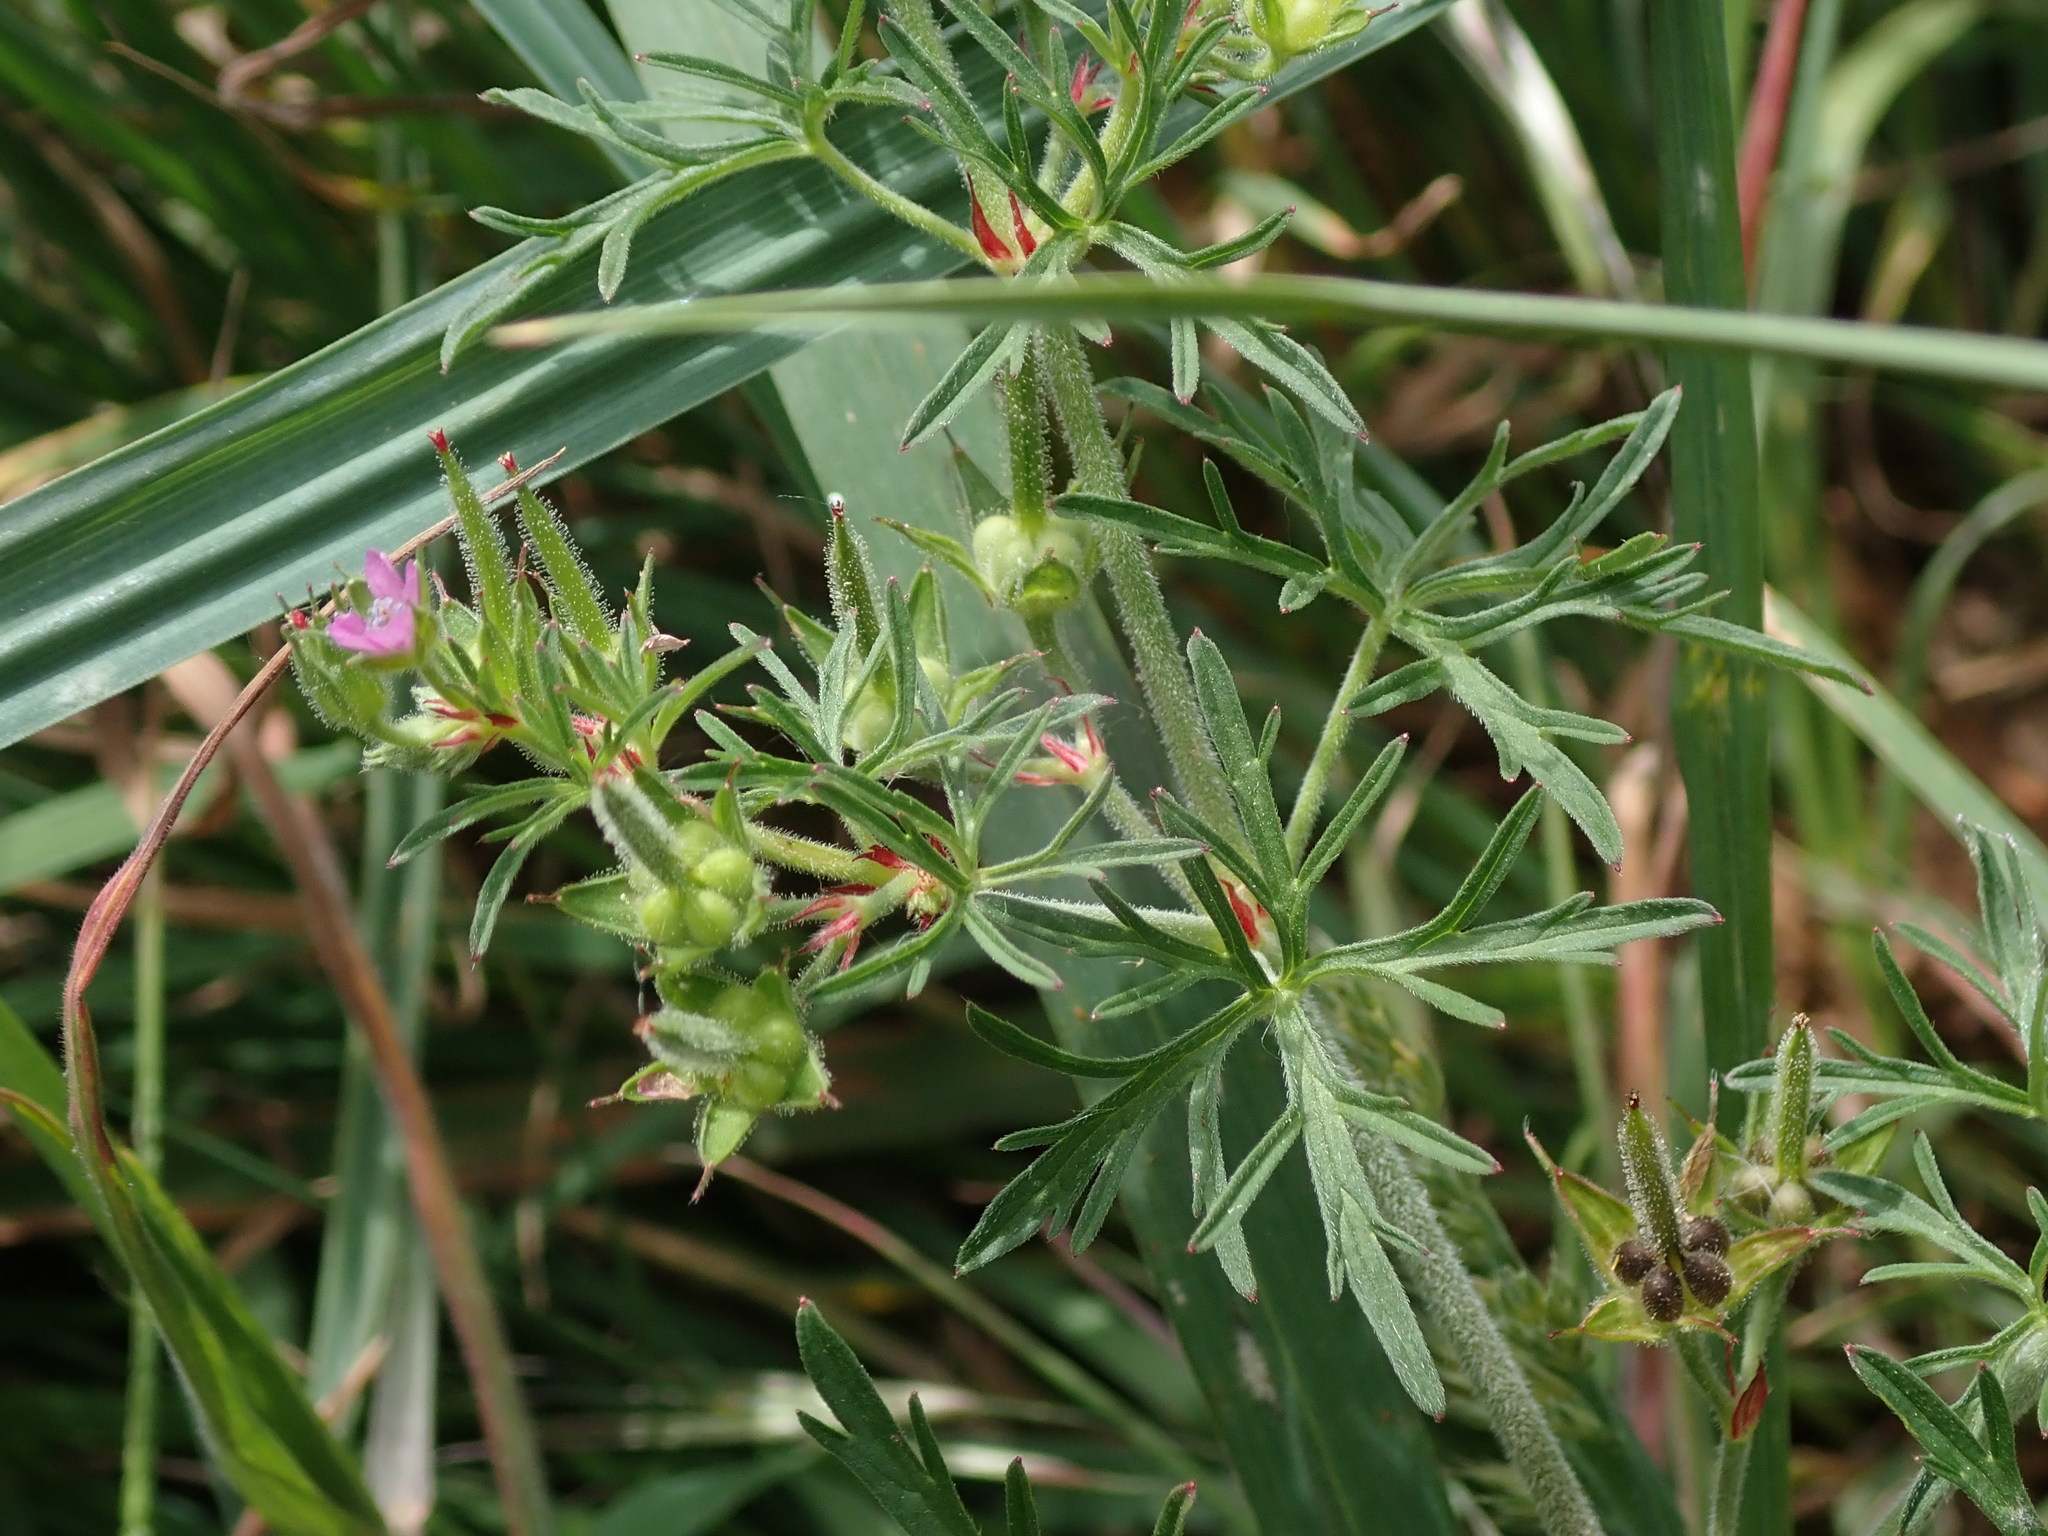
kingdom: Plantae
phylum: Tracheophyta
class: Magnoliopsida
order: Geraniales
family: Geraniaceae
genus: Geranium
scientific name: Geranium dissectum
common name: Cut-leaved crane's-bill
